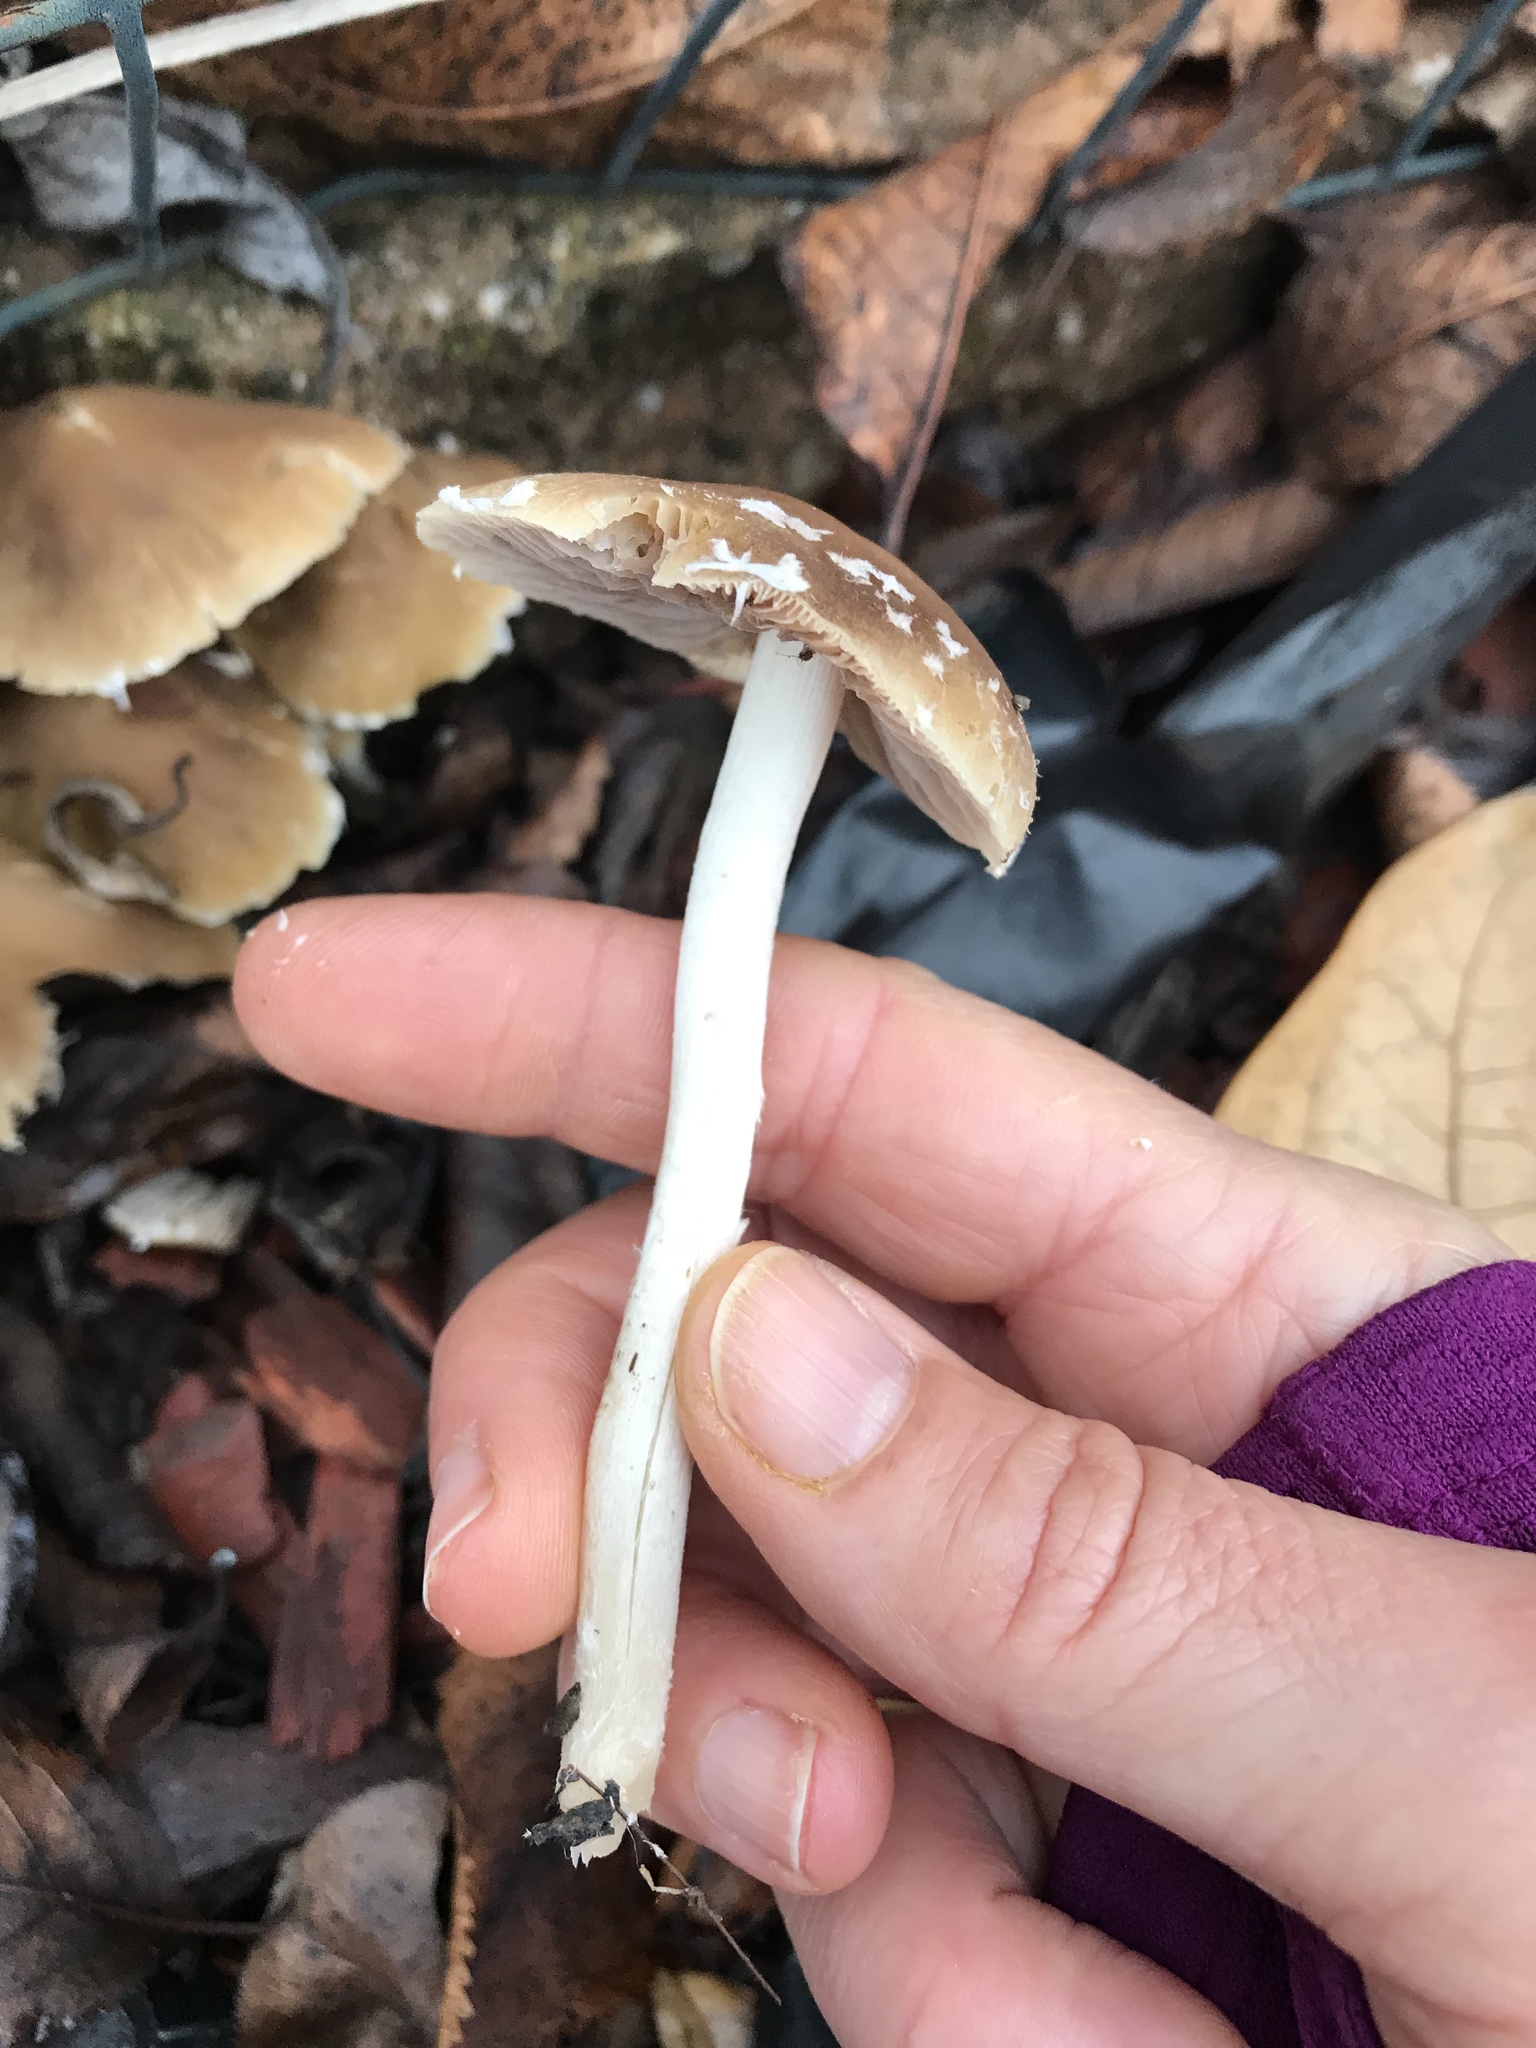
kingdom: Fungi
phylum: Basidiomycota
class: Agaricomycetes
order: Agaricales
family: Psathyrellaceae
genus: Candolleomyces
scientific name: Candolleomyces candolleanus
